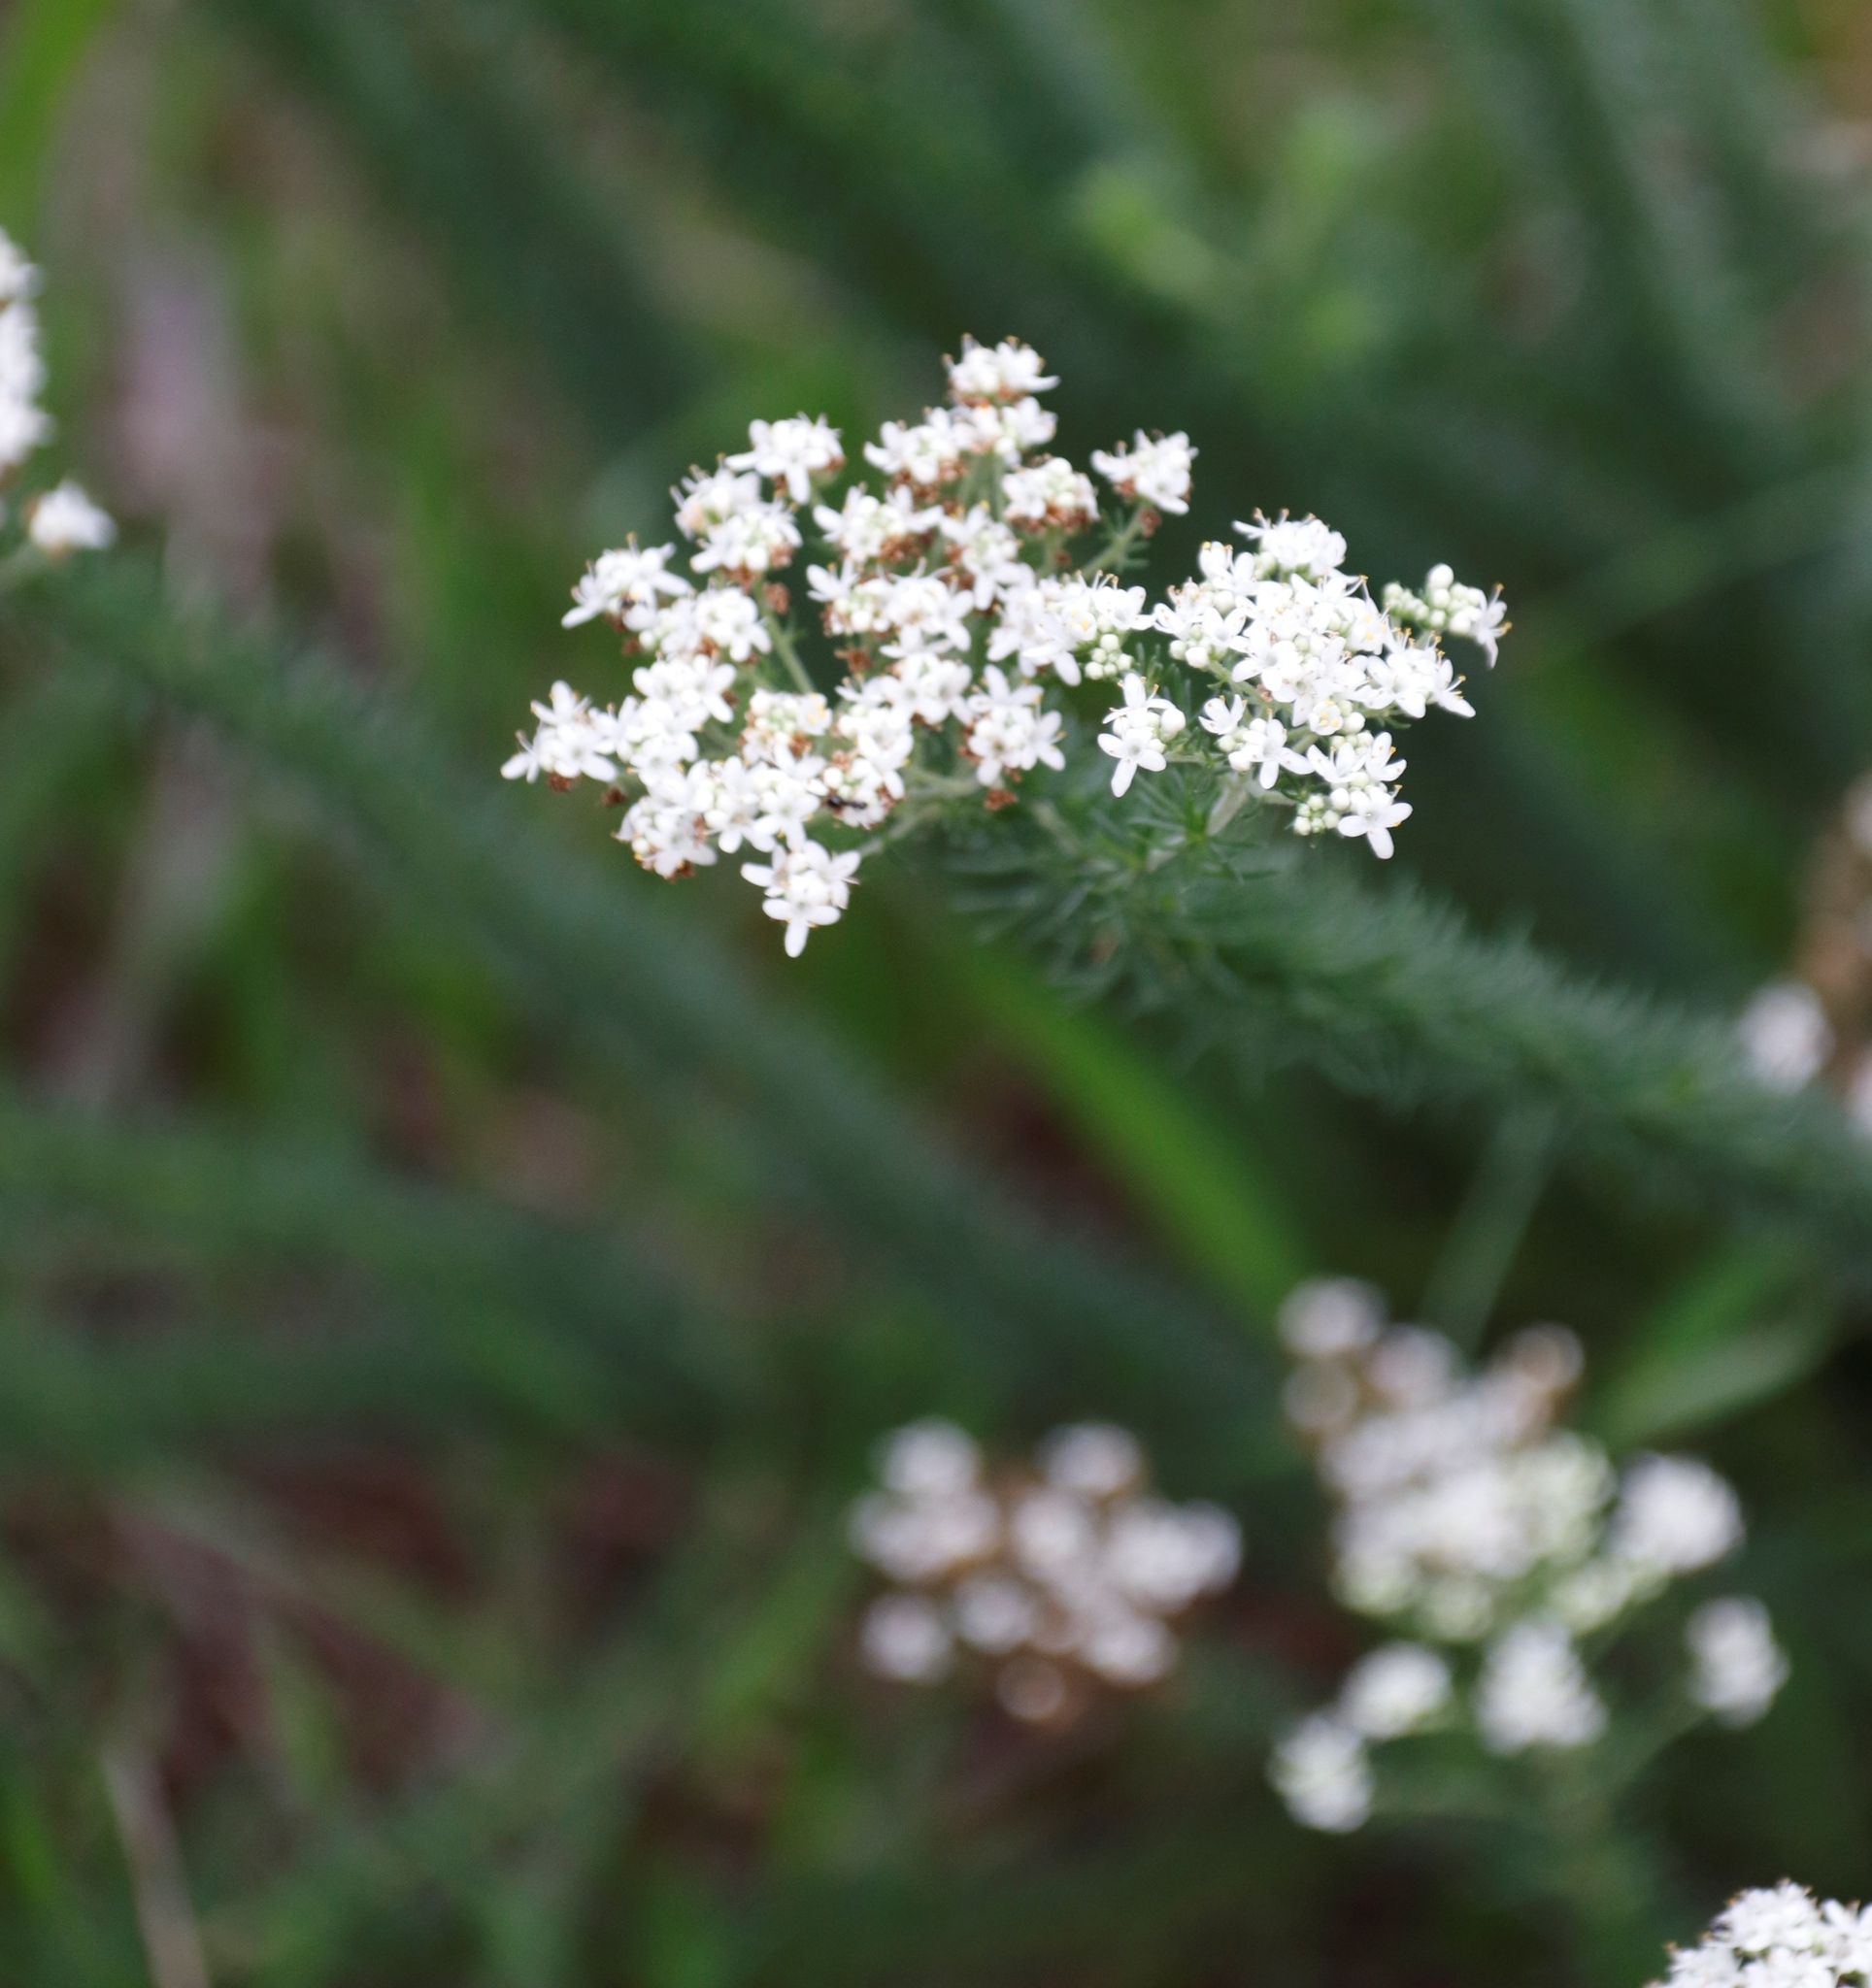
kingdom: Plantae
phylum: Tracheophyta
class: Magnoliopsida
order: Lamiales
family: Scrophulariaceae
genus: Selago
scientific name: Selago corymbosa
